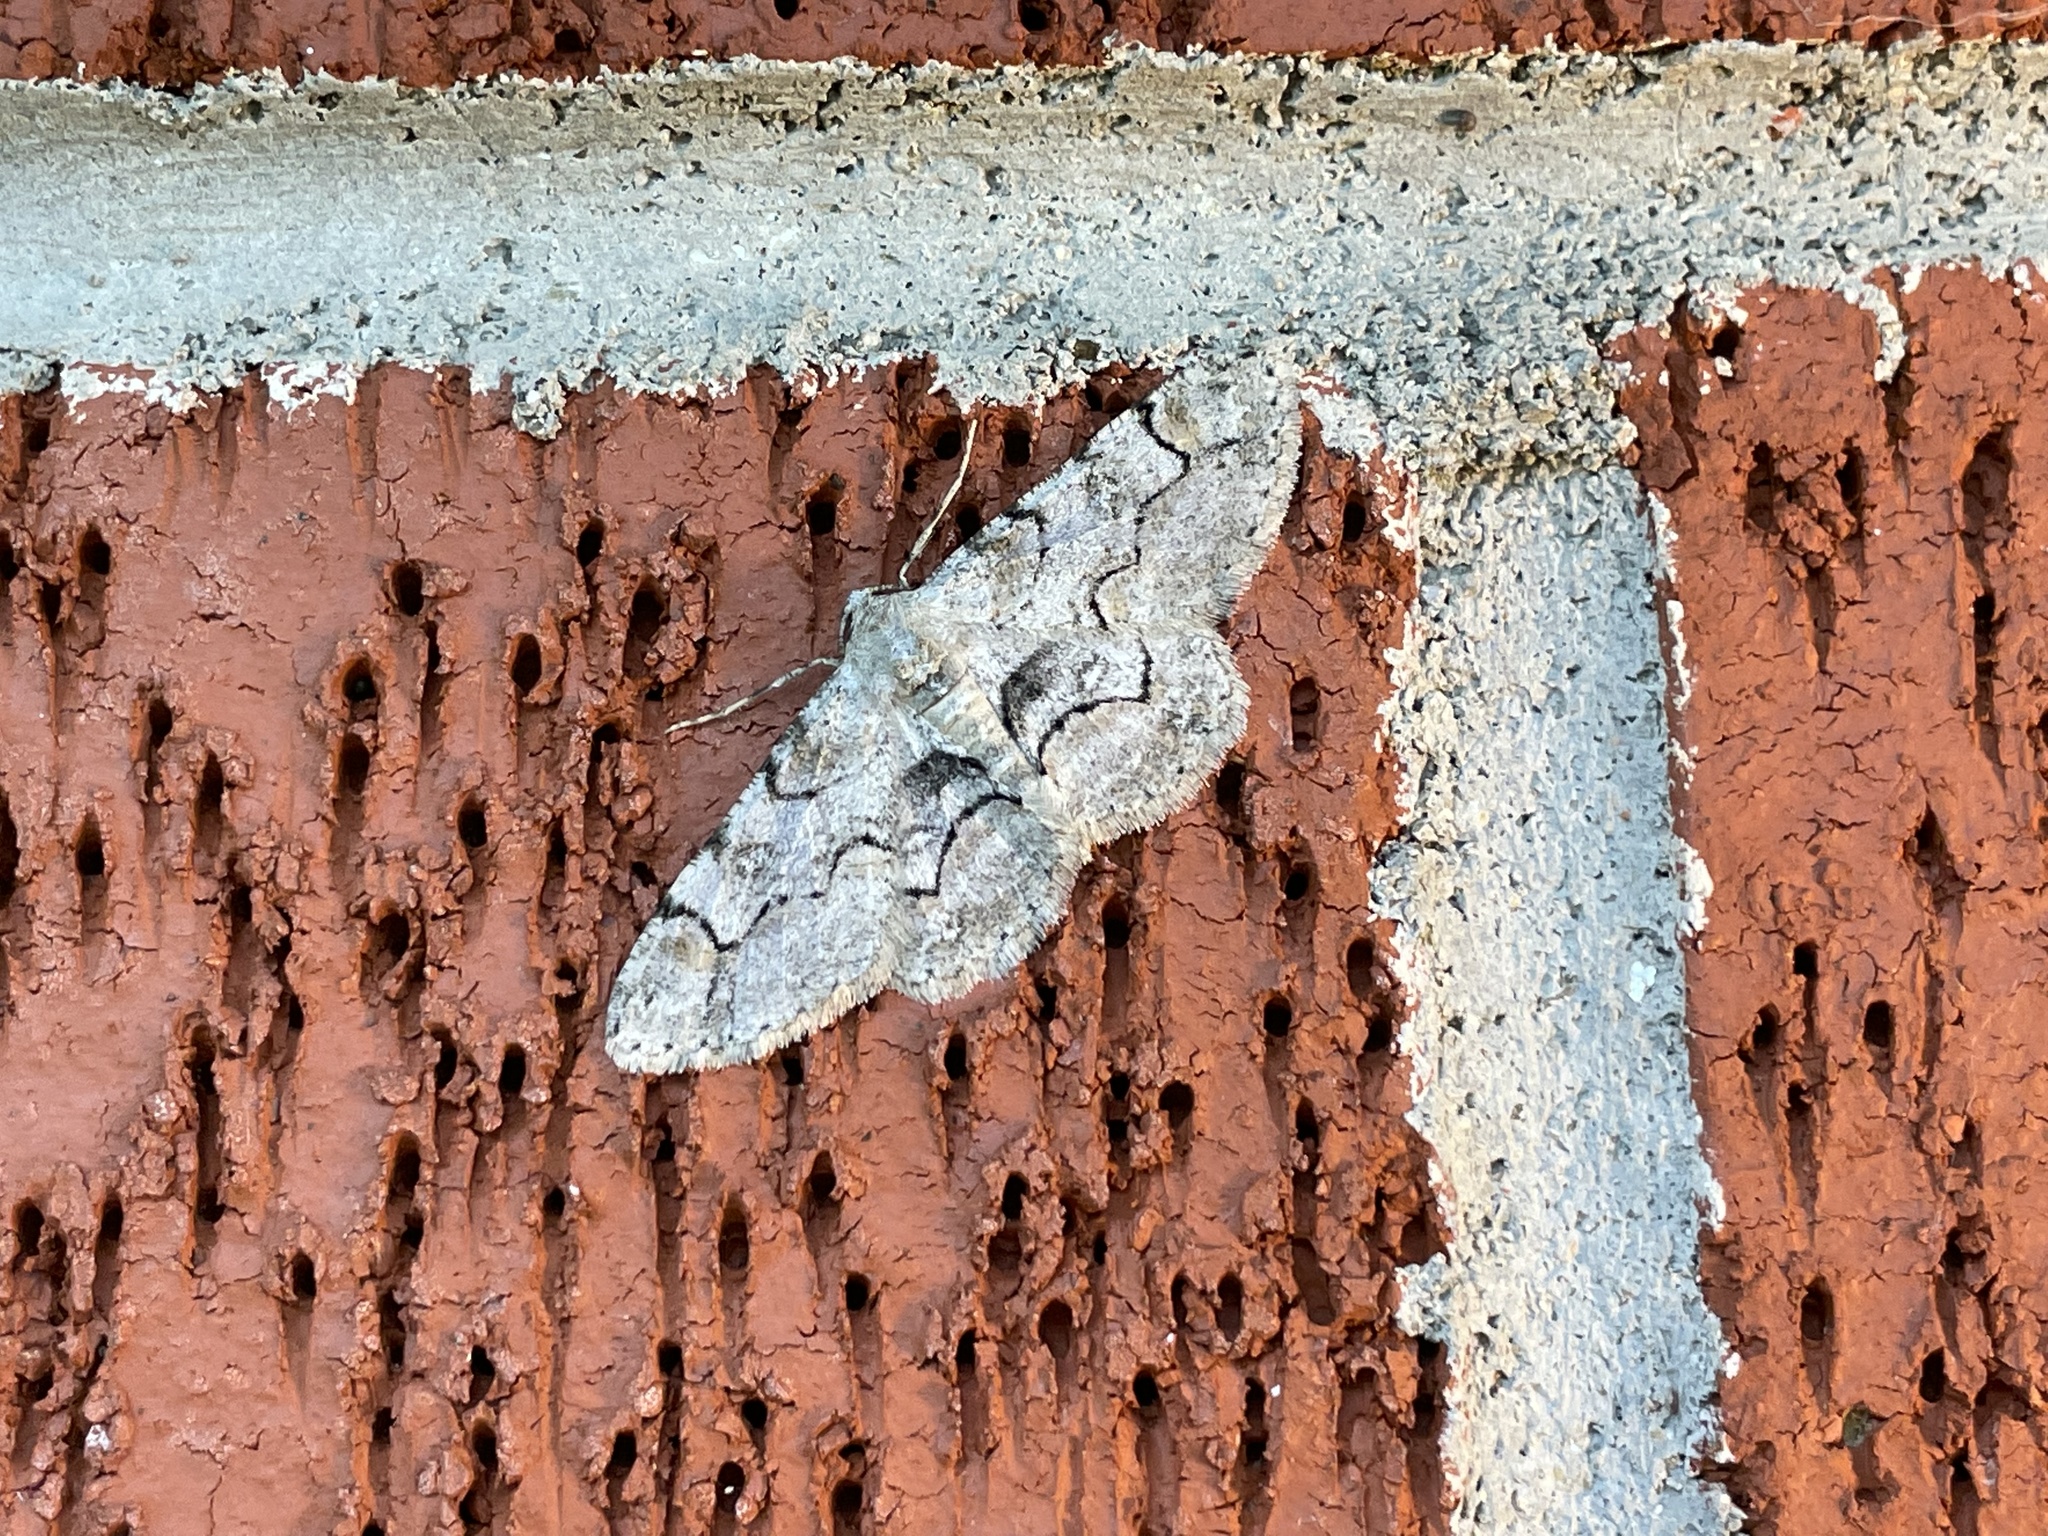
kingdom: Animalia
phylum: Arthropoda
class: Insecta
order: Lepidoptera
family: Geometridae
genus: Iridopsis
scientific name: Iridopsis larvaria
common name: Bent-line gray
